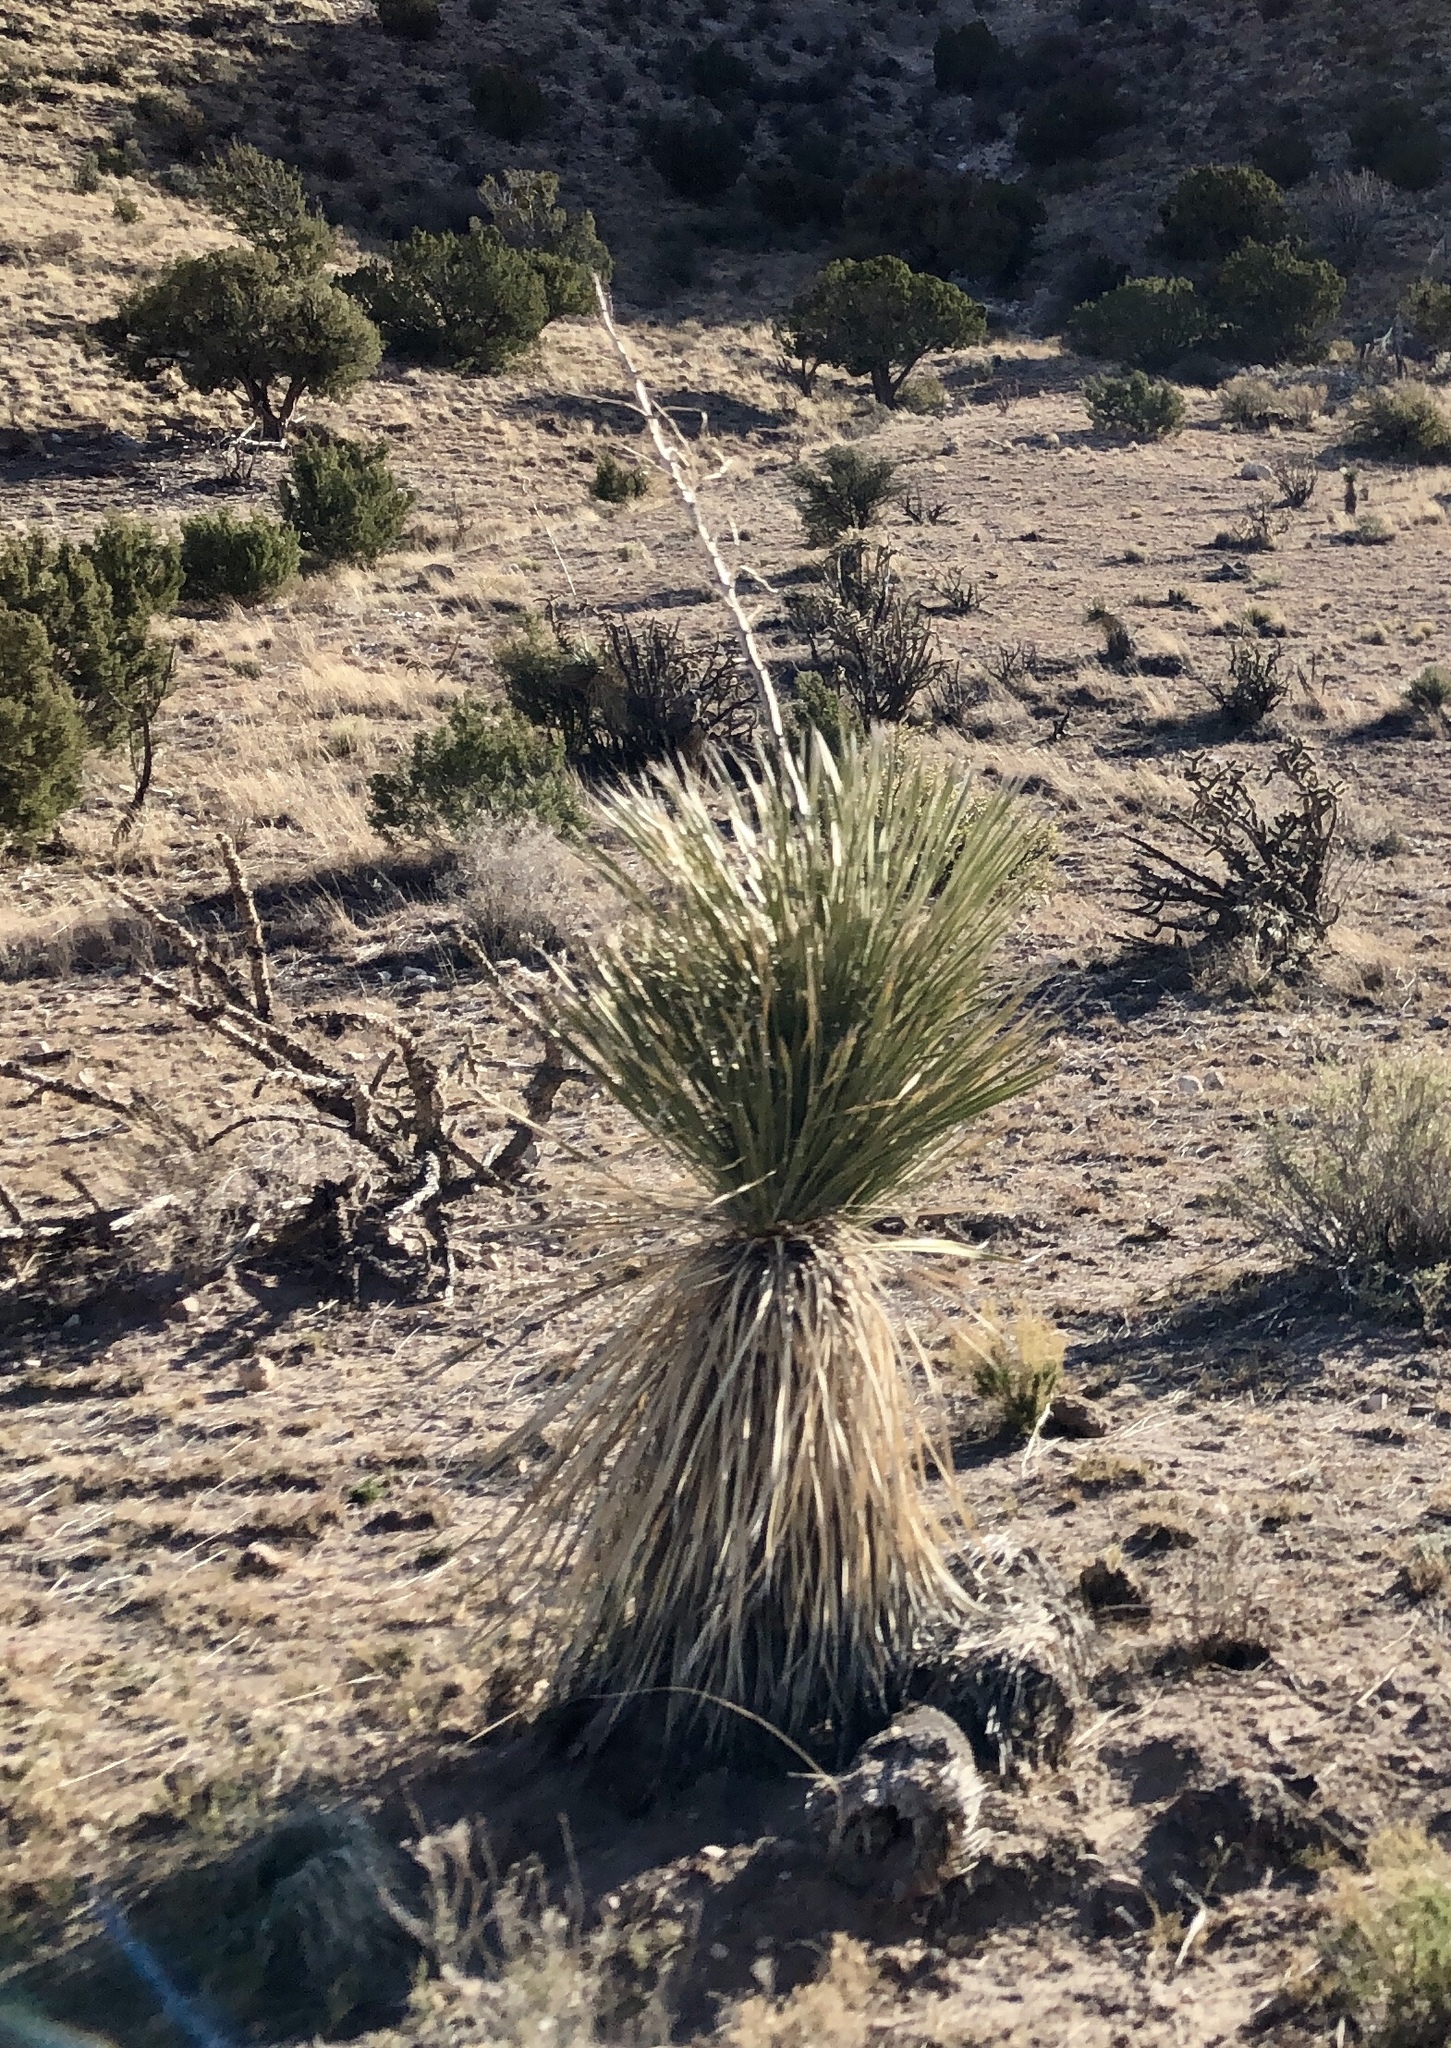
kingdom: Plantae
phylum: Tracheophyta
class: Liliopsida
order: Asparagales
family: Asparagaceae
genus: Yucca
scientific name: Yucca elata
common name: Palmella
